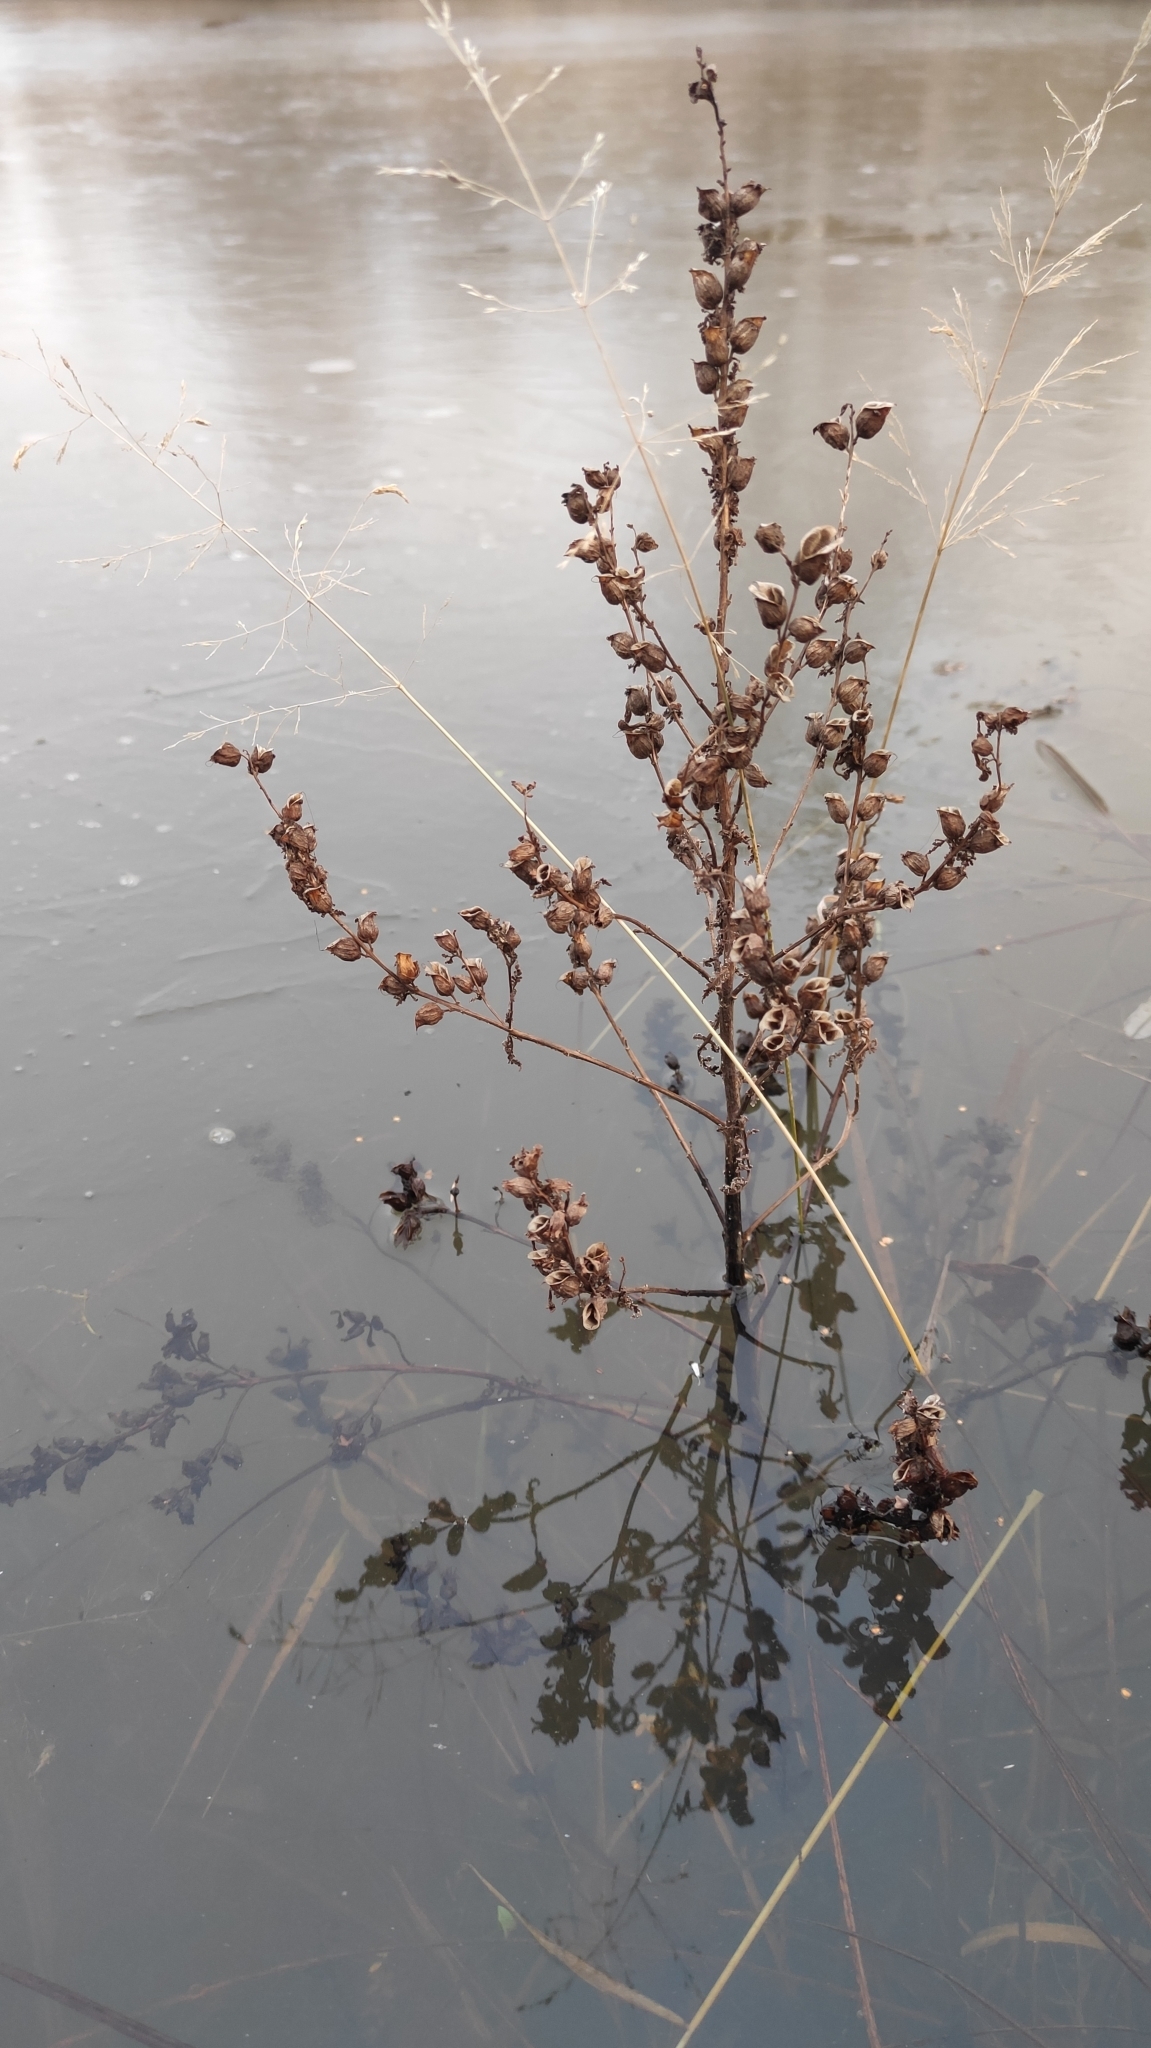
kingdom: Plantae
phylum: Tracheophyta
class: Magnoliopsida
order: Lamiales
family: Orobanchaceae
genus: Pedicularis
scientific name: Pedicularis karoi
